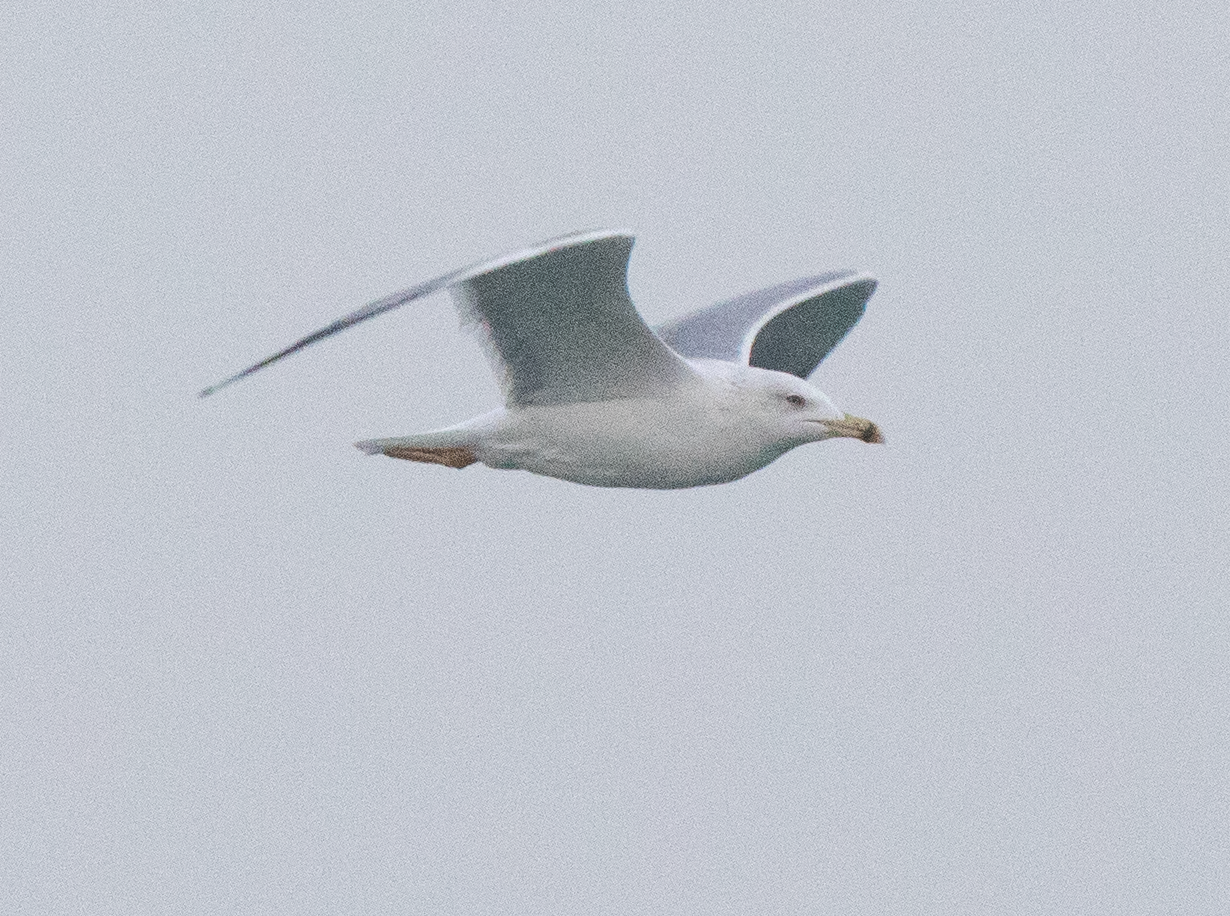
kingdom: Animalia
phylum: Chordata
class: Aves
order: Charadriiformes
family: Laridae
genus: Larus
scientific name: Larus michahellis
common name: Yellow-legged gull
